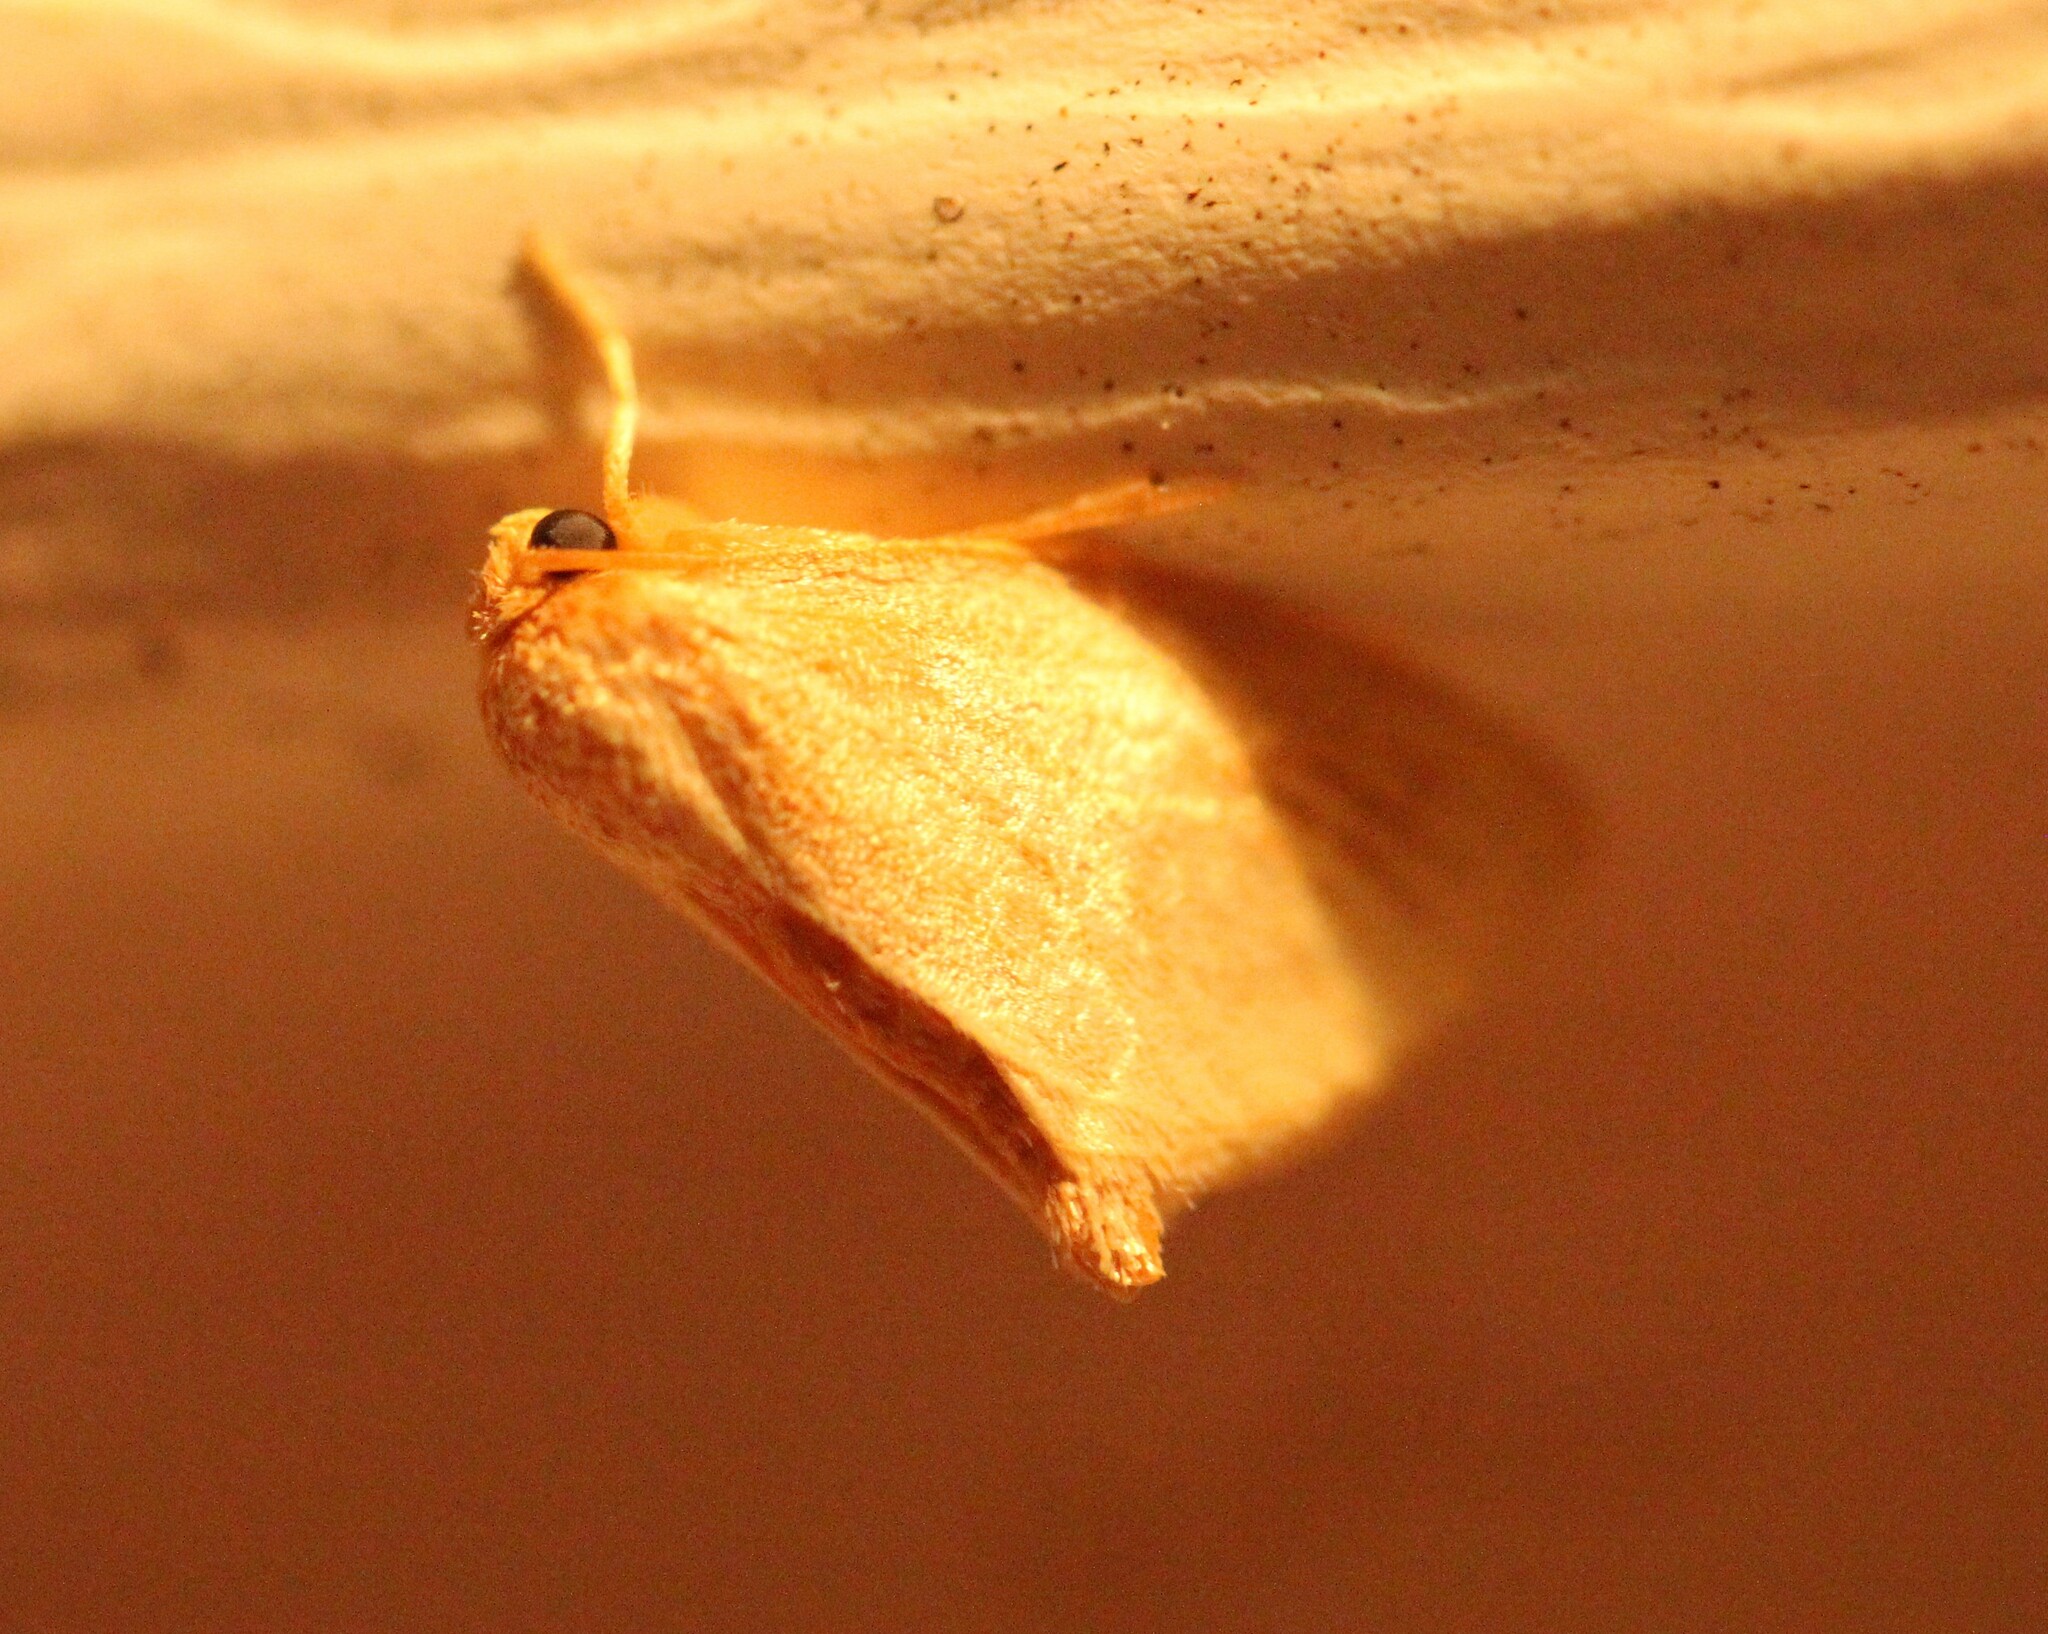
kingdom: Animalia
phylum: Arthropoda
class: Insecta
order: Lepidoptera
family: Limacodidae
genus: Tortricidia
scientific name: Tortricidia testacea
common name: Early button slug moth
